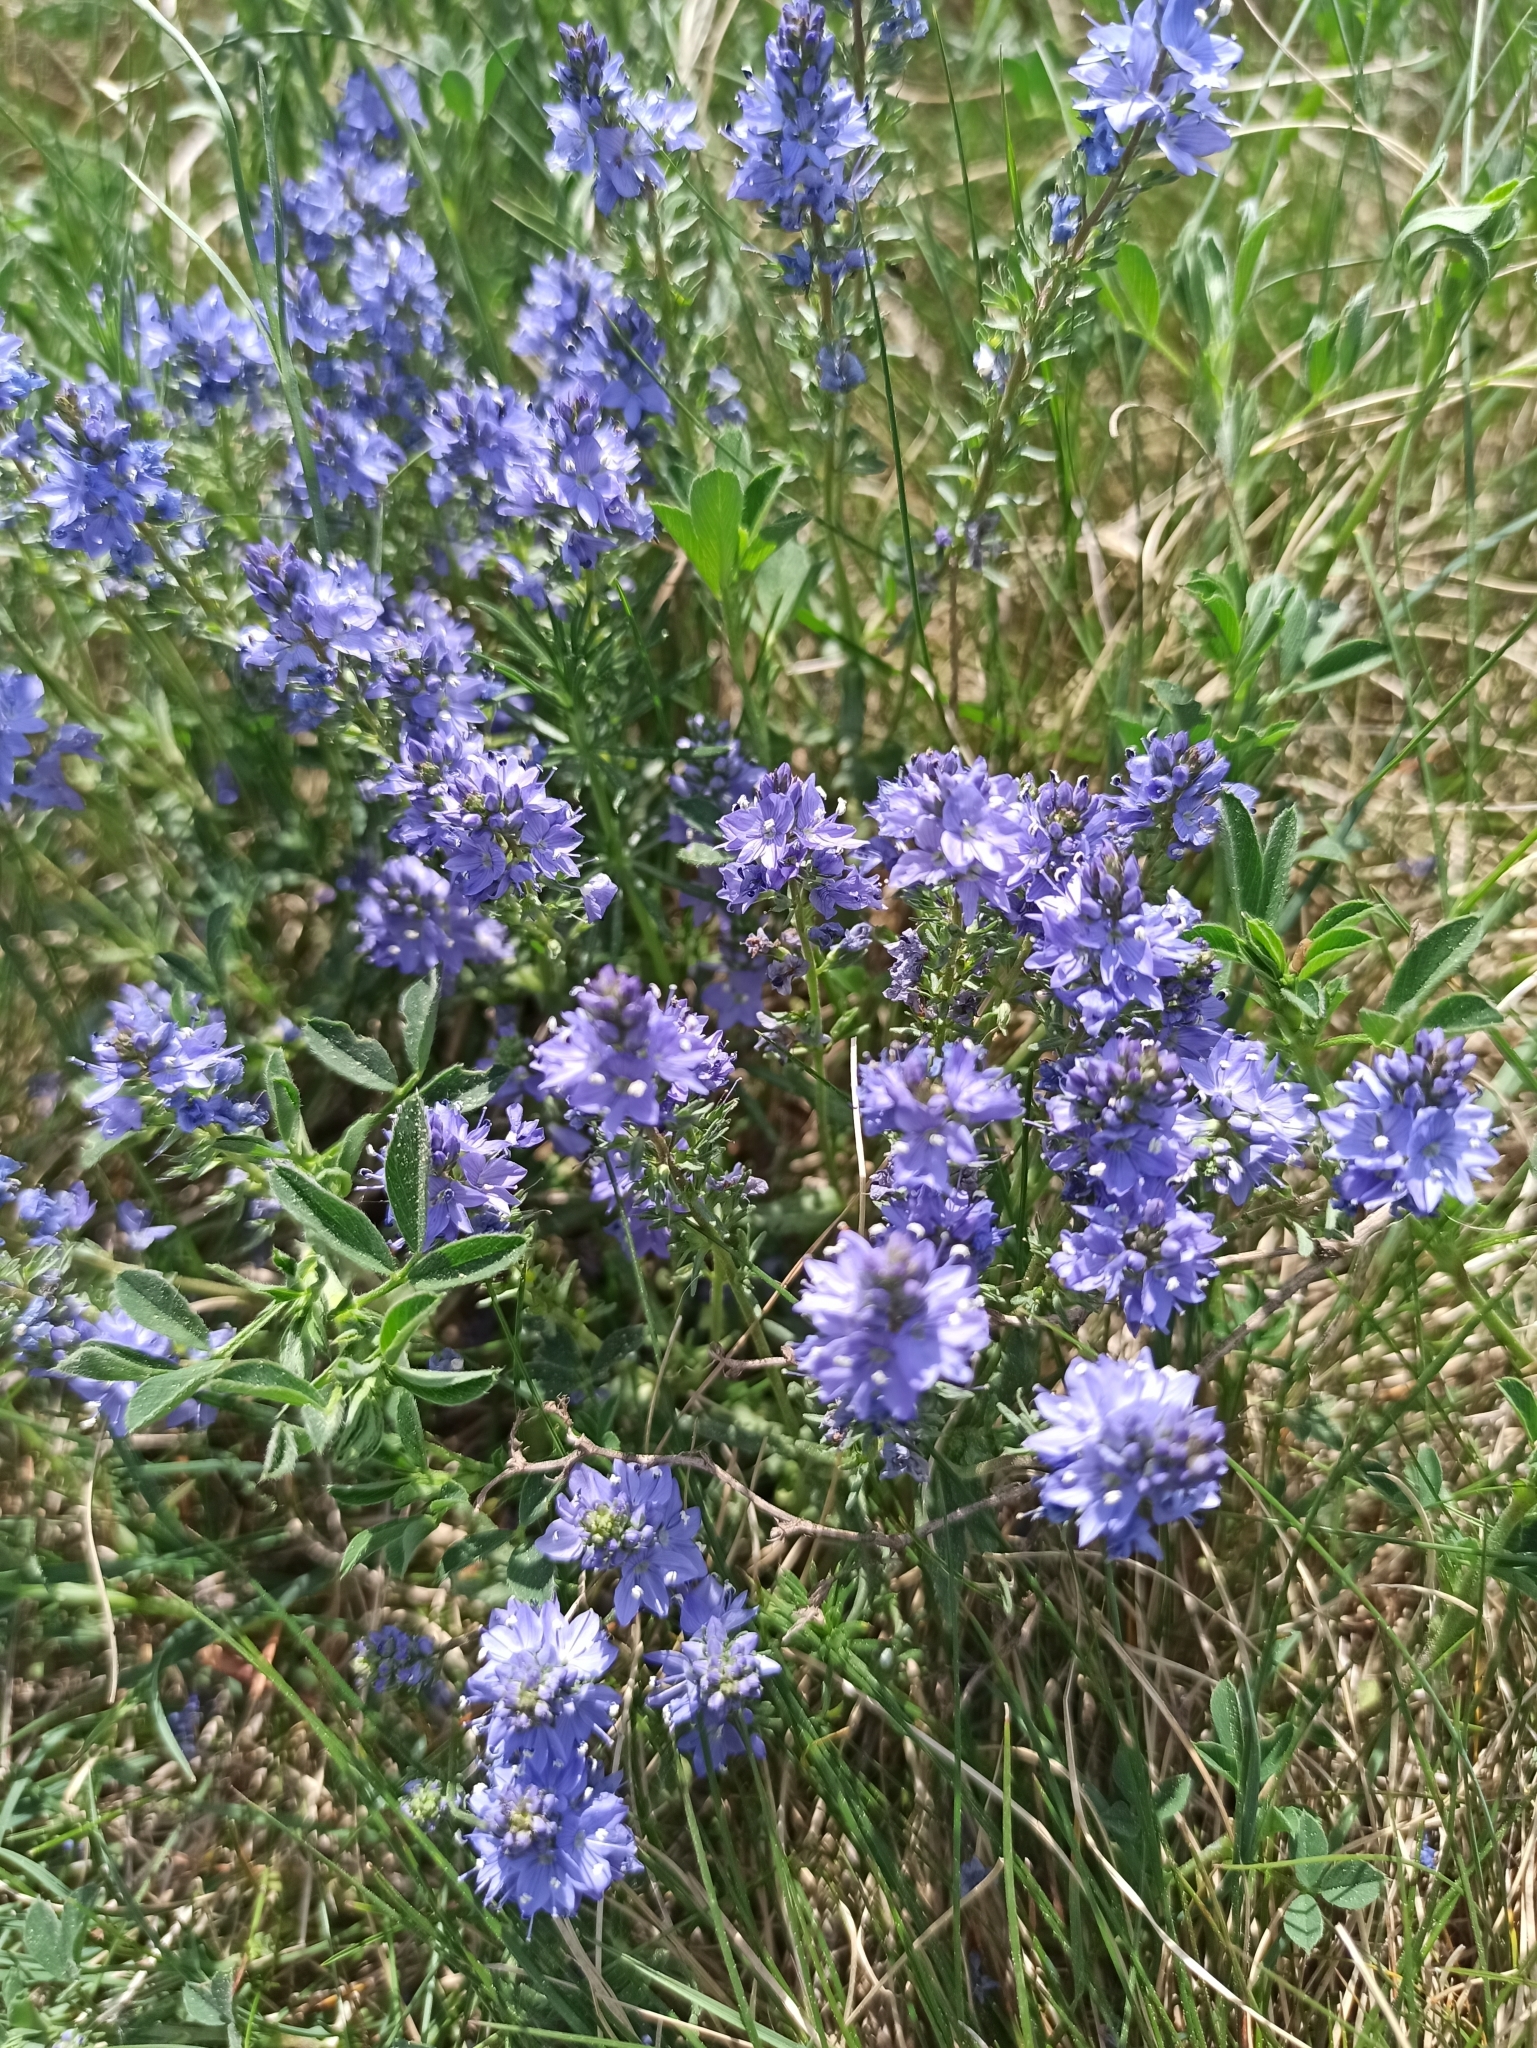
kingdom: Plantae
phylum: Tracheophyta
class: Magnoliopsida
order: Lamiales
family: Plantaginaceae
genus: Veronica
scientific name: Veronica prostrata
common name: Prostrate speedwell
